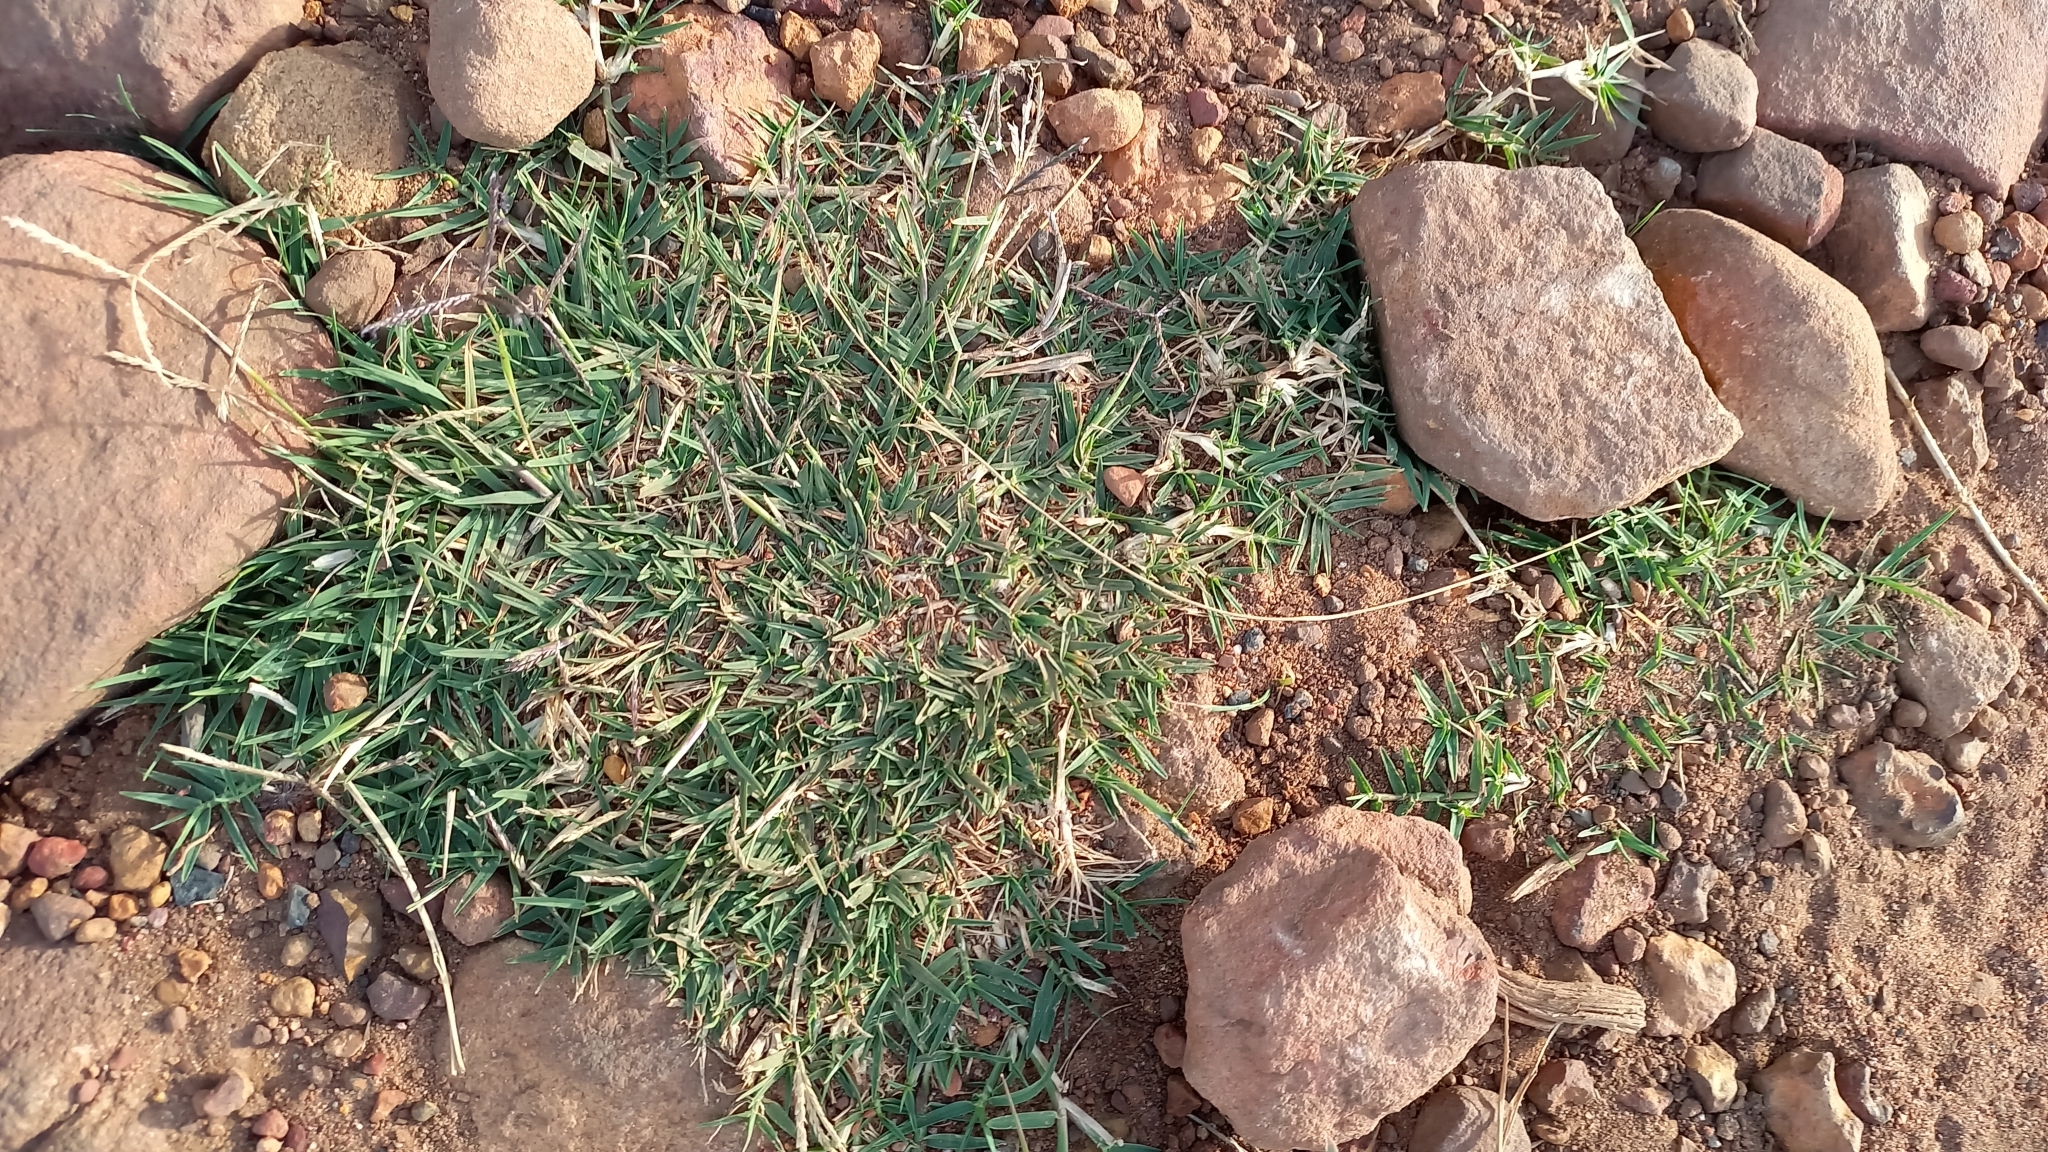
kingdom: Plantae
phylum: Tracheophyta
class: Liliopsida
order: Poales
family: Poaceae
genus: Cynodon
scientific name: Cynodon dactylon
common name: Bermuda grass
